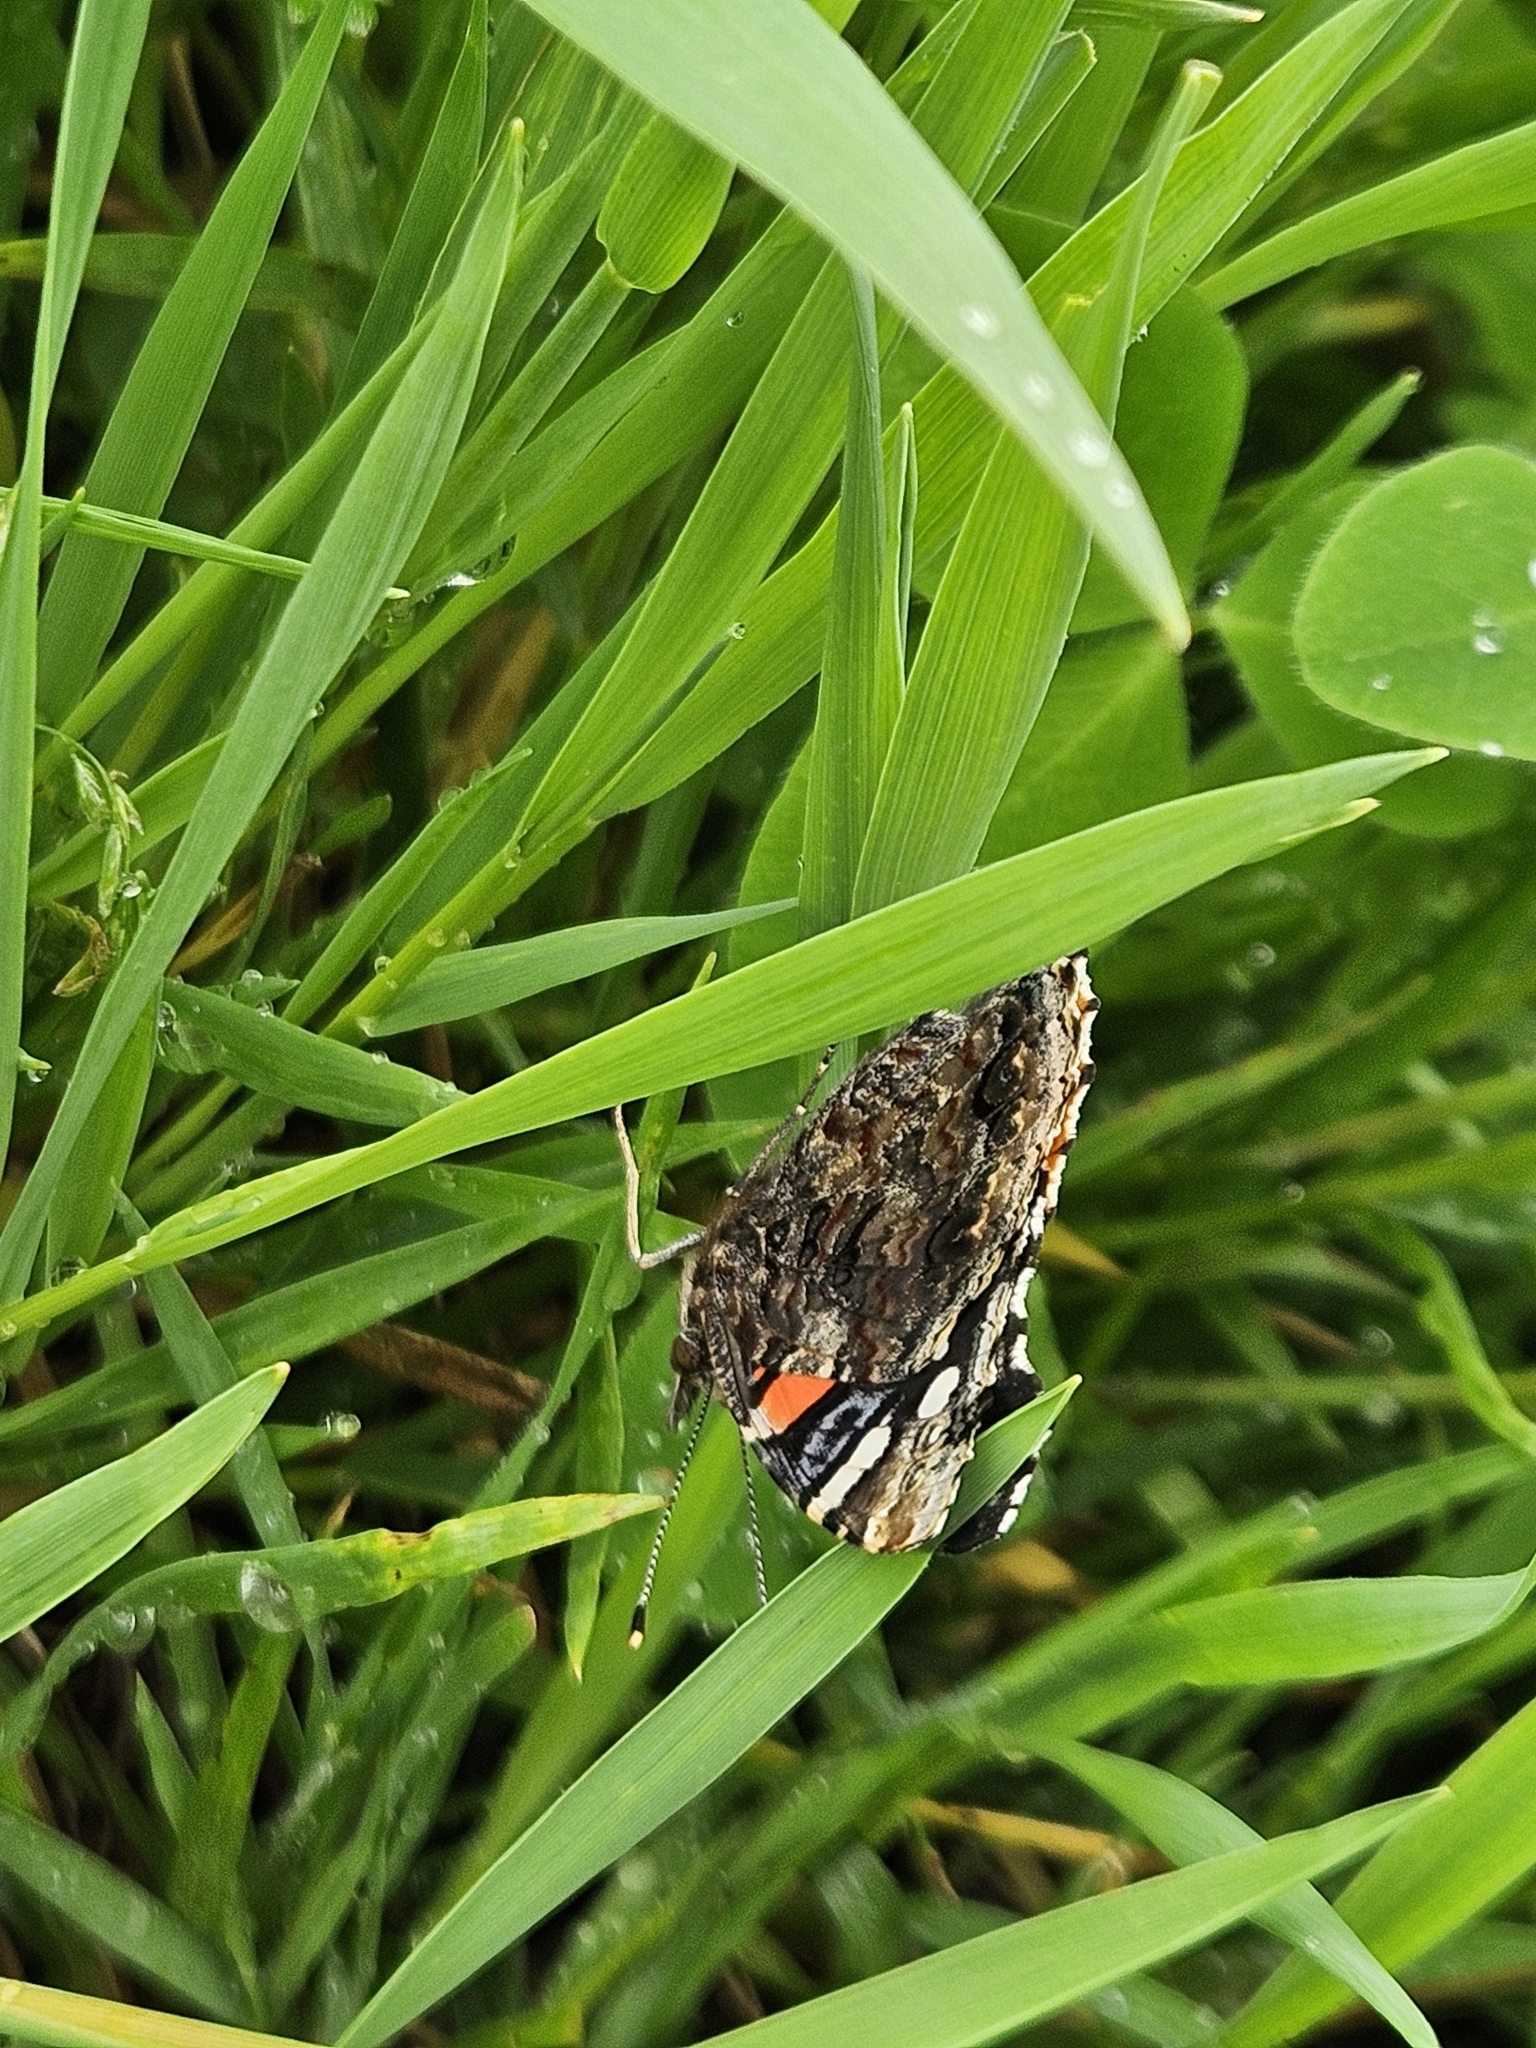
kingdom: Animalia
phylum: Arthropoda
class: Insecta
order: Lepidoptera
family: Nymphalidae
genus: Vanessa
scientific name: Vanessa atalanta
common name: Red admiral
